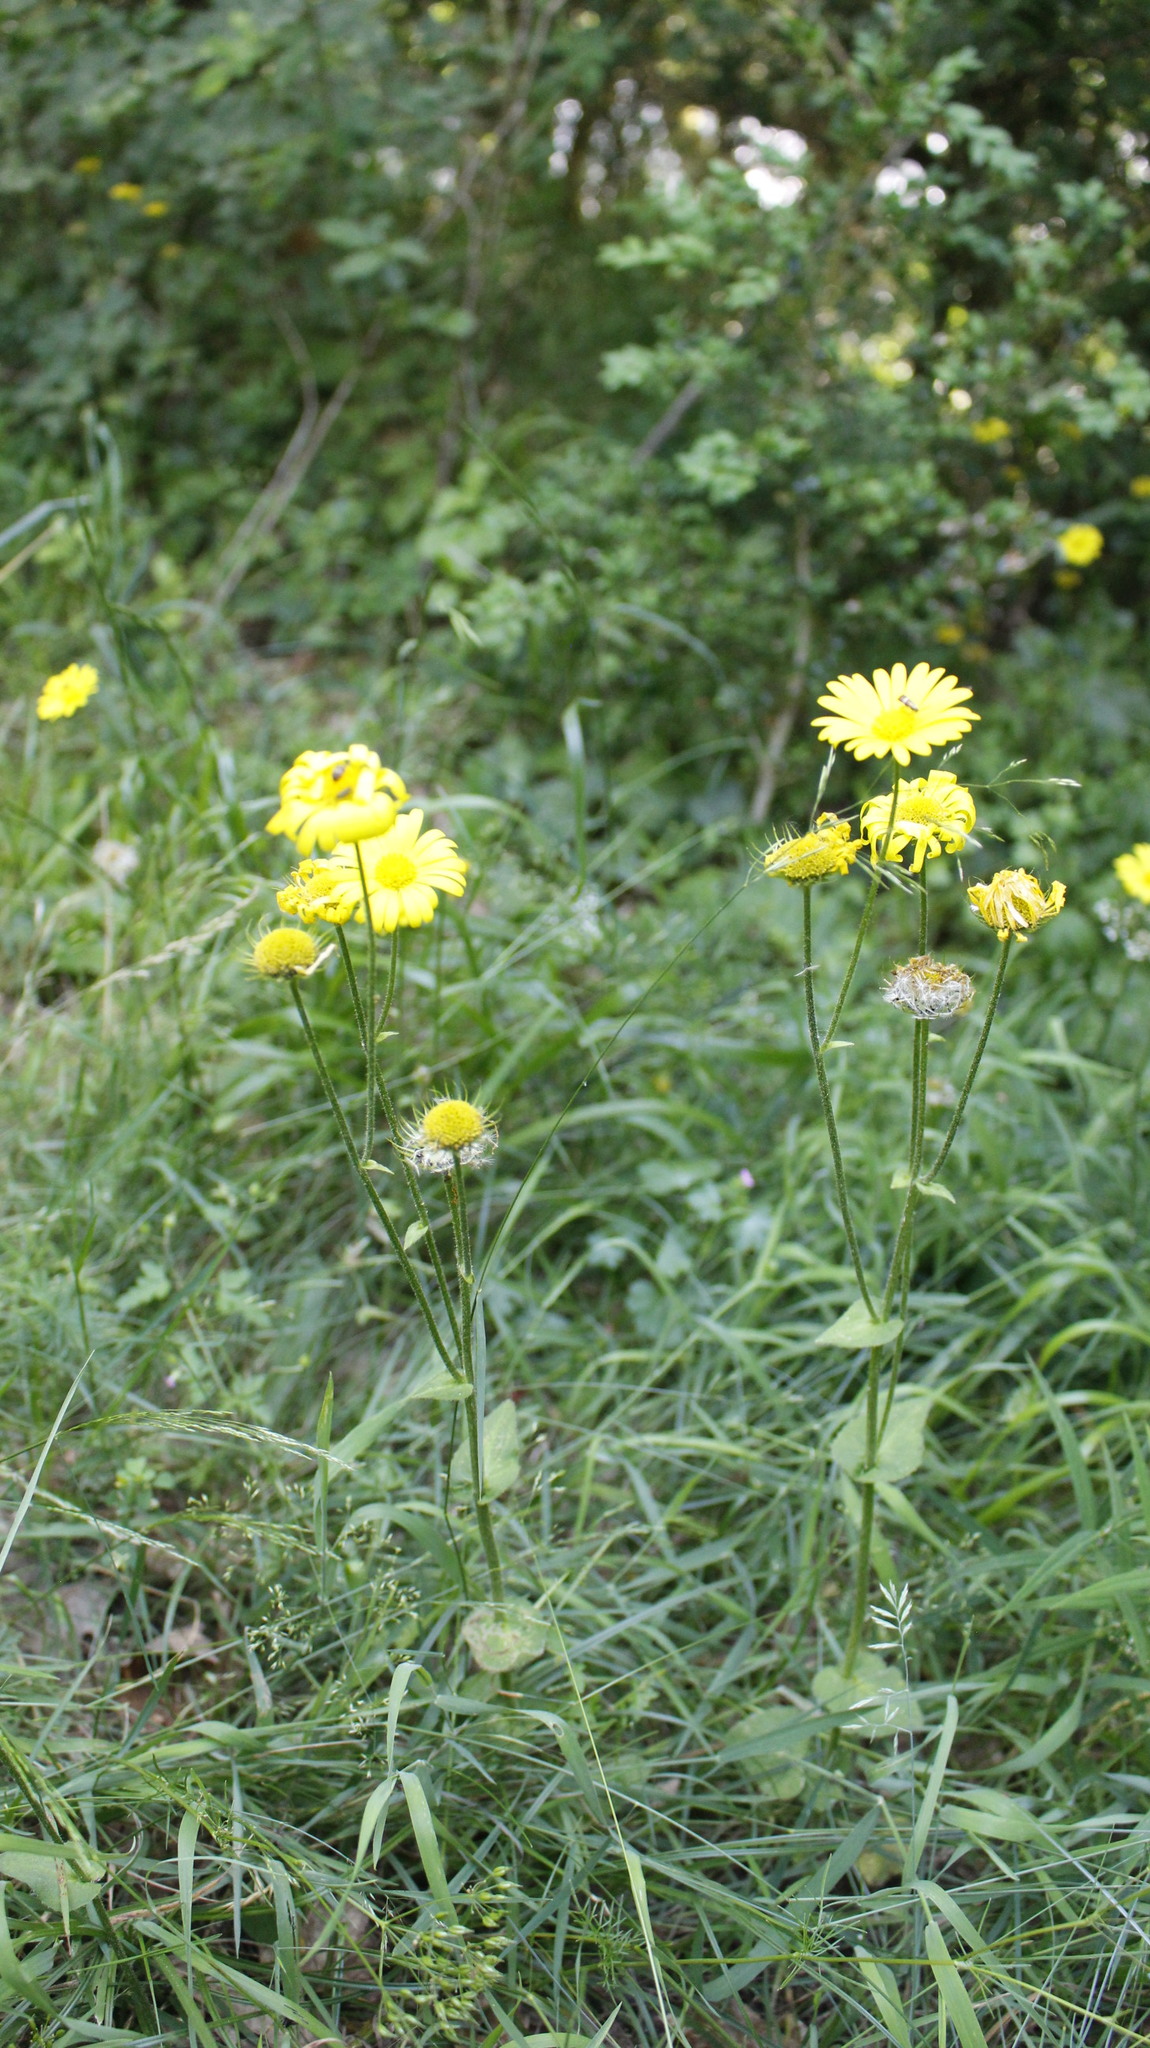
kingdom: Plantae
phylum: Tracheophyta
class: Magnoliopsida
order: Asterales
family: Asteraceae
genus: Doronicum
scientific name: Doronicum pardalianches
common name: Leopard's-bane
